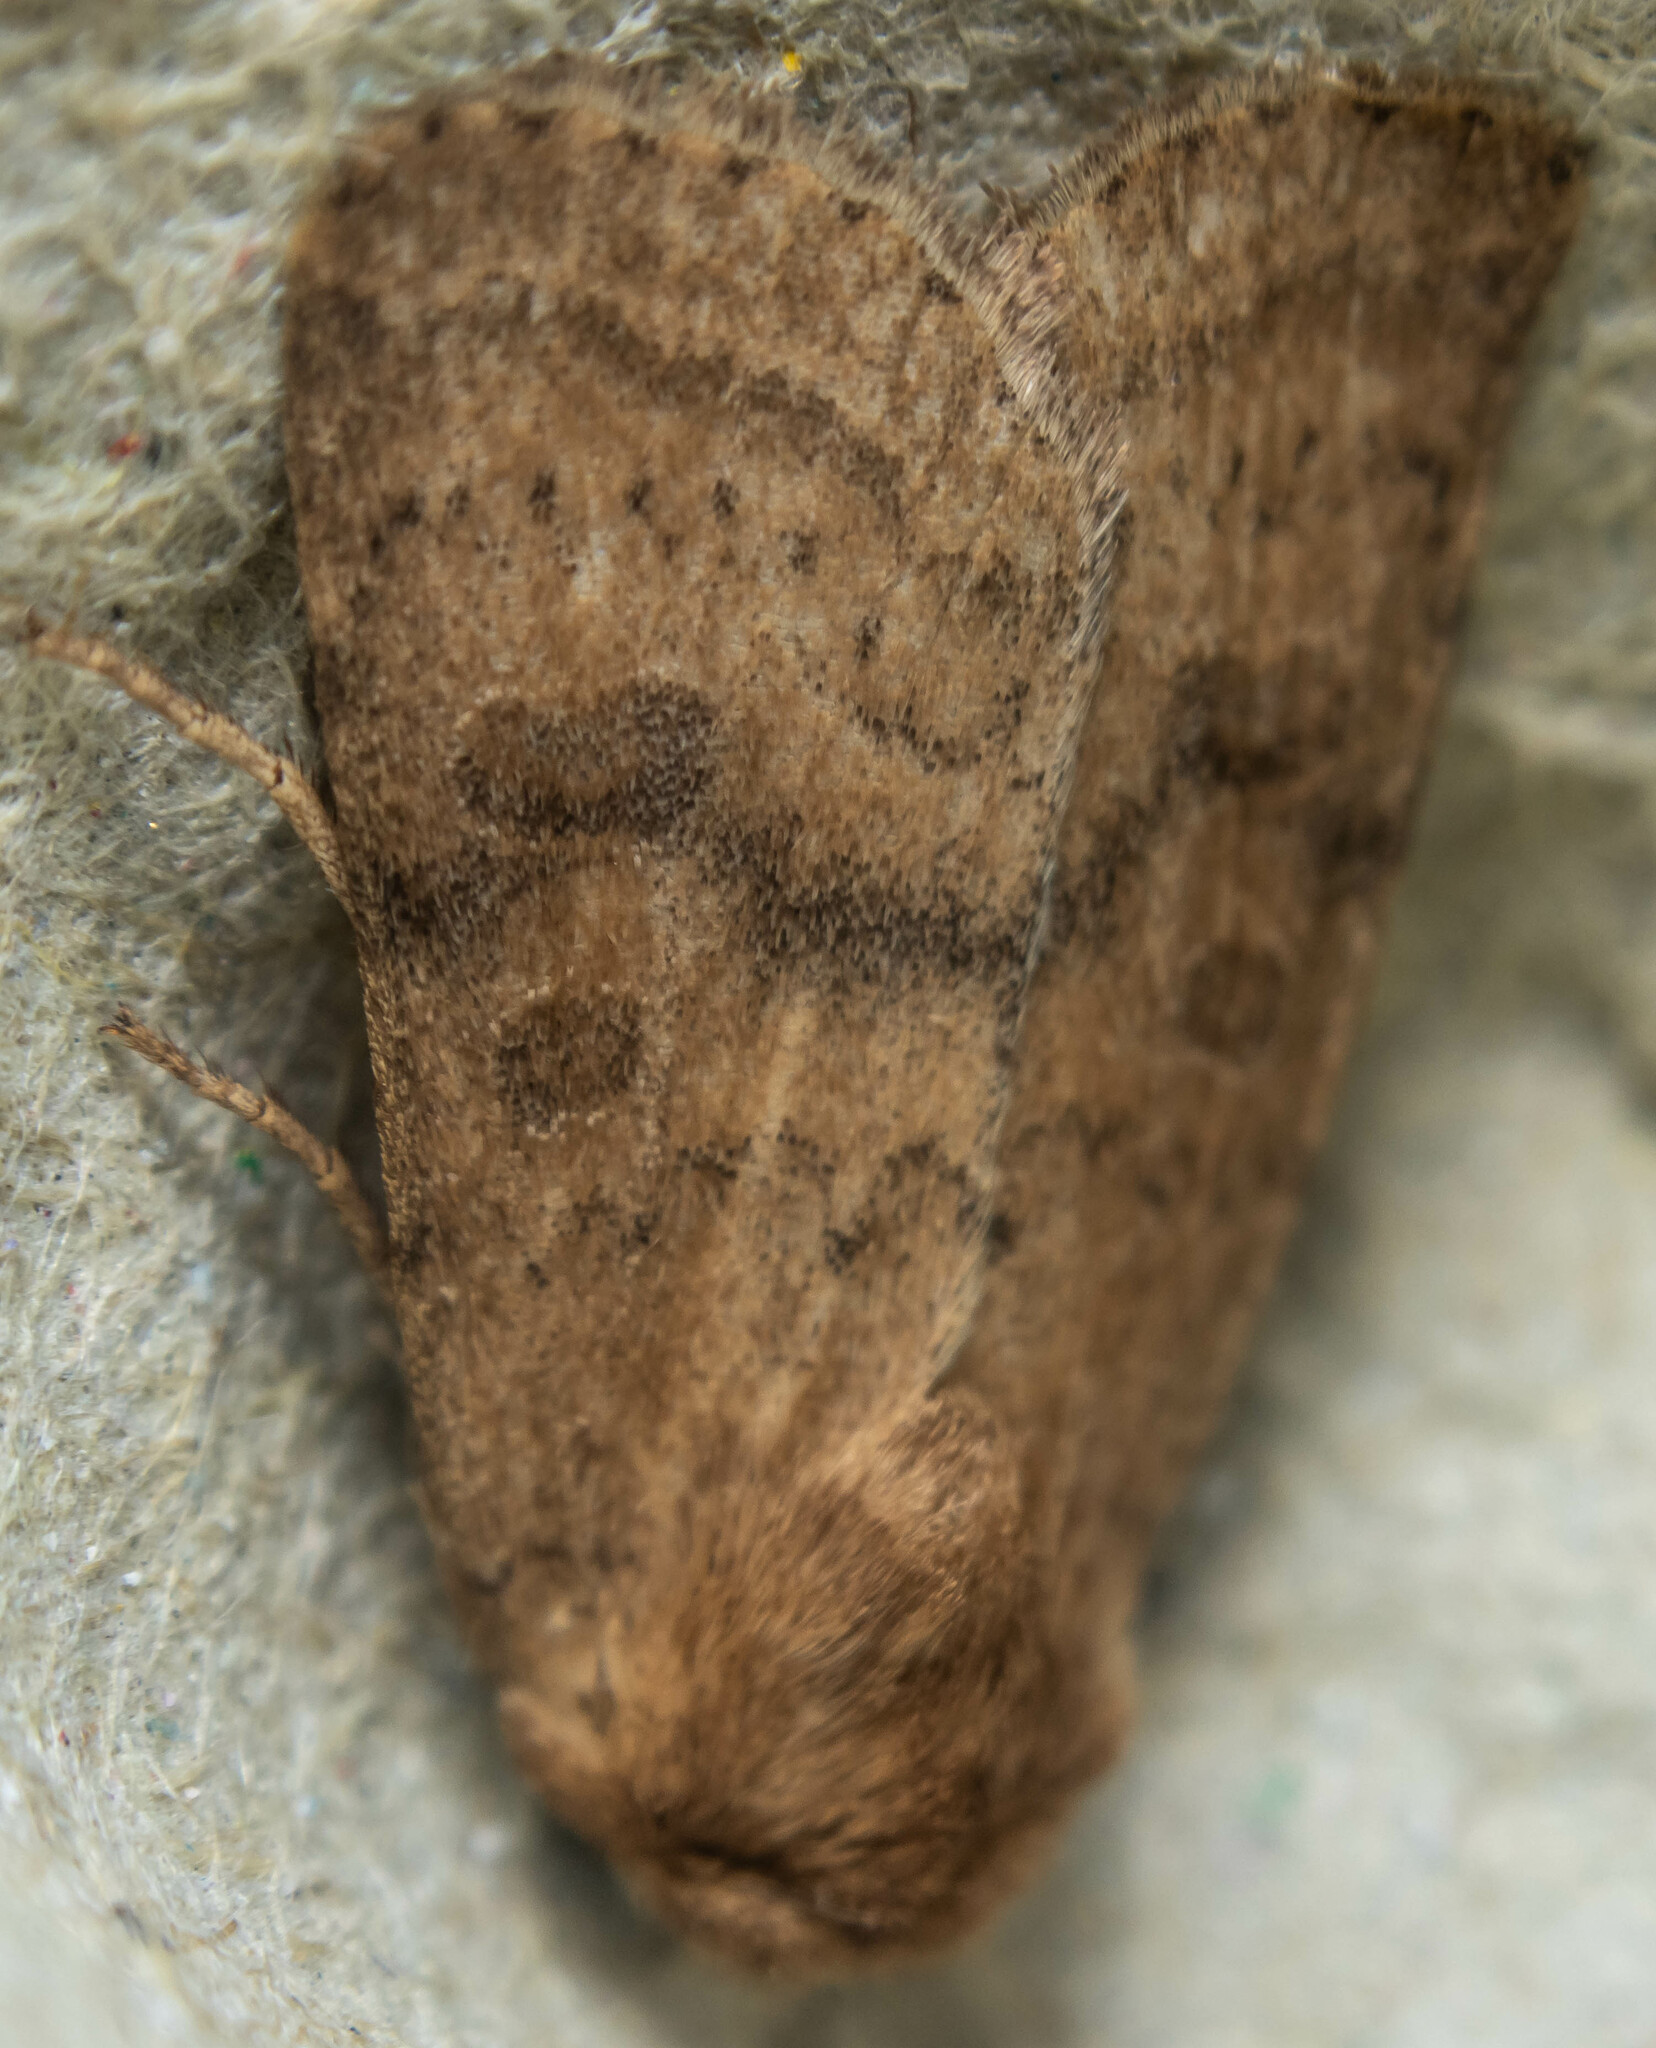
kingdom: Animalia
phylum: Arthropoda
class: Insecta
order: Lepidoptera
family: Noctuidae
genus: Hoplodrina
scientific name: Hoplodrina octogenaria
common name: Uncertain
